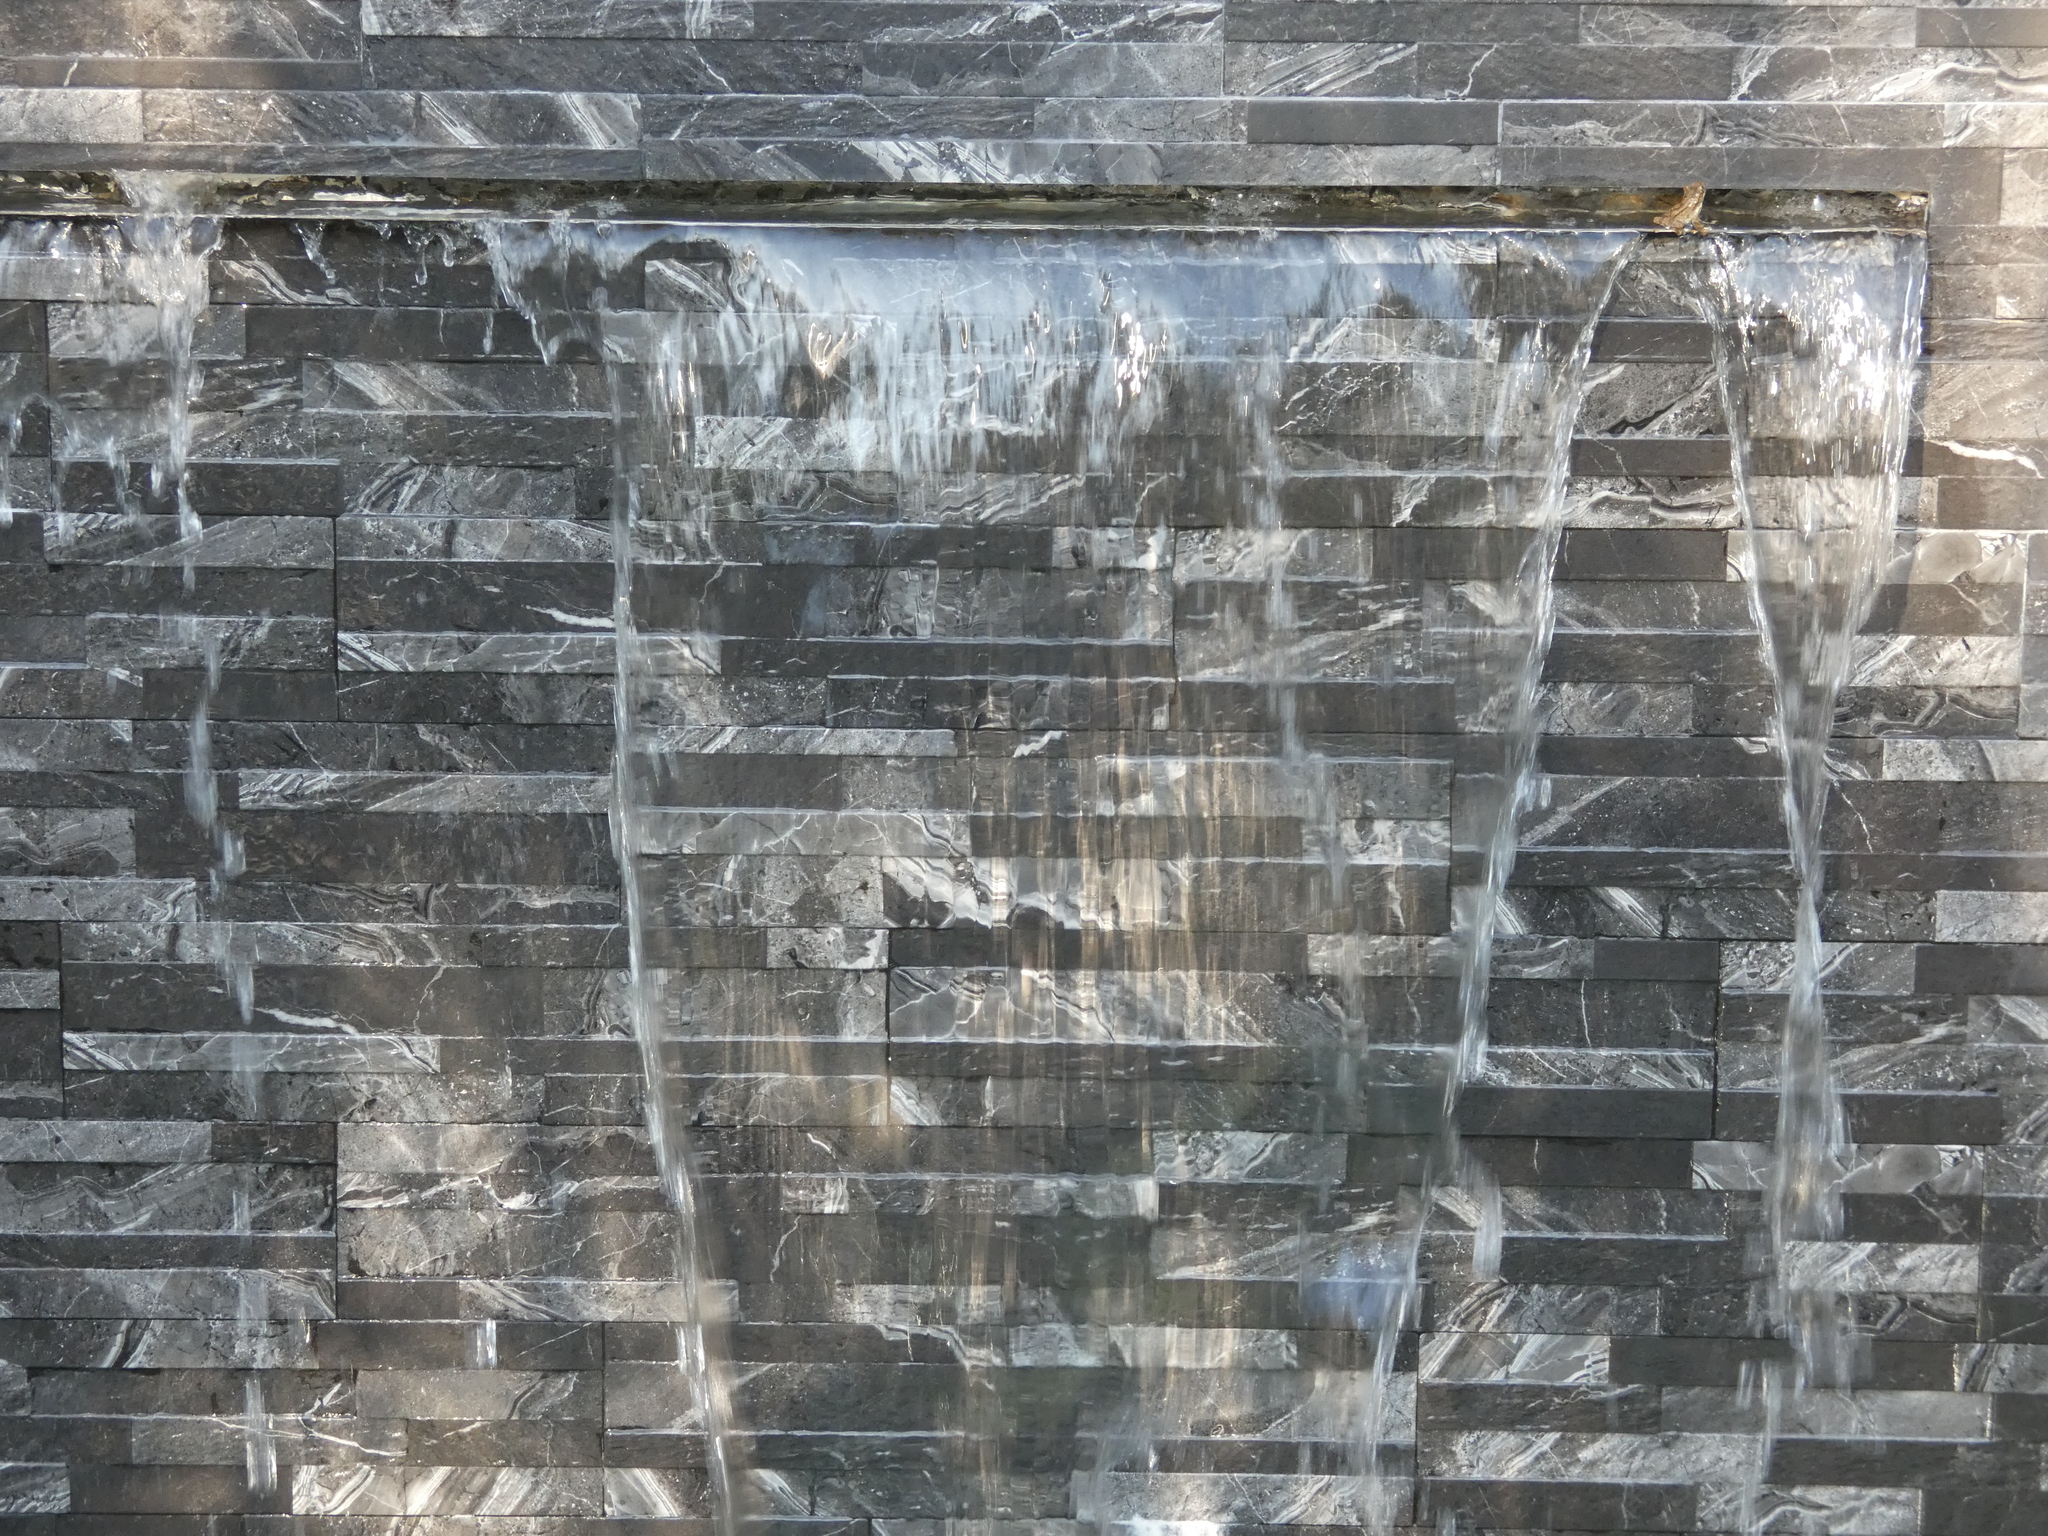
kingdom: Animalia
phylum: Chordata
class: Amphibia
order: Anura
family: Hylidae
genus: Osteopilus
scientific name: Osteopilus septentrionalis
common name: Cuban treefrog
